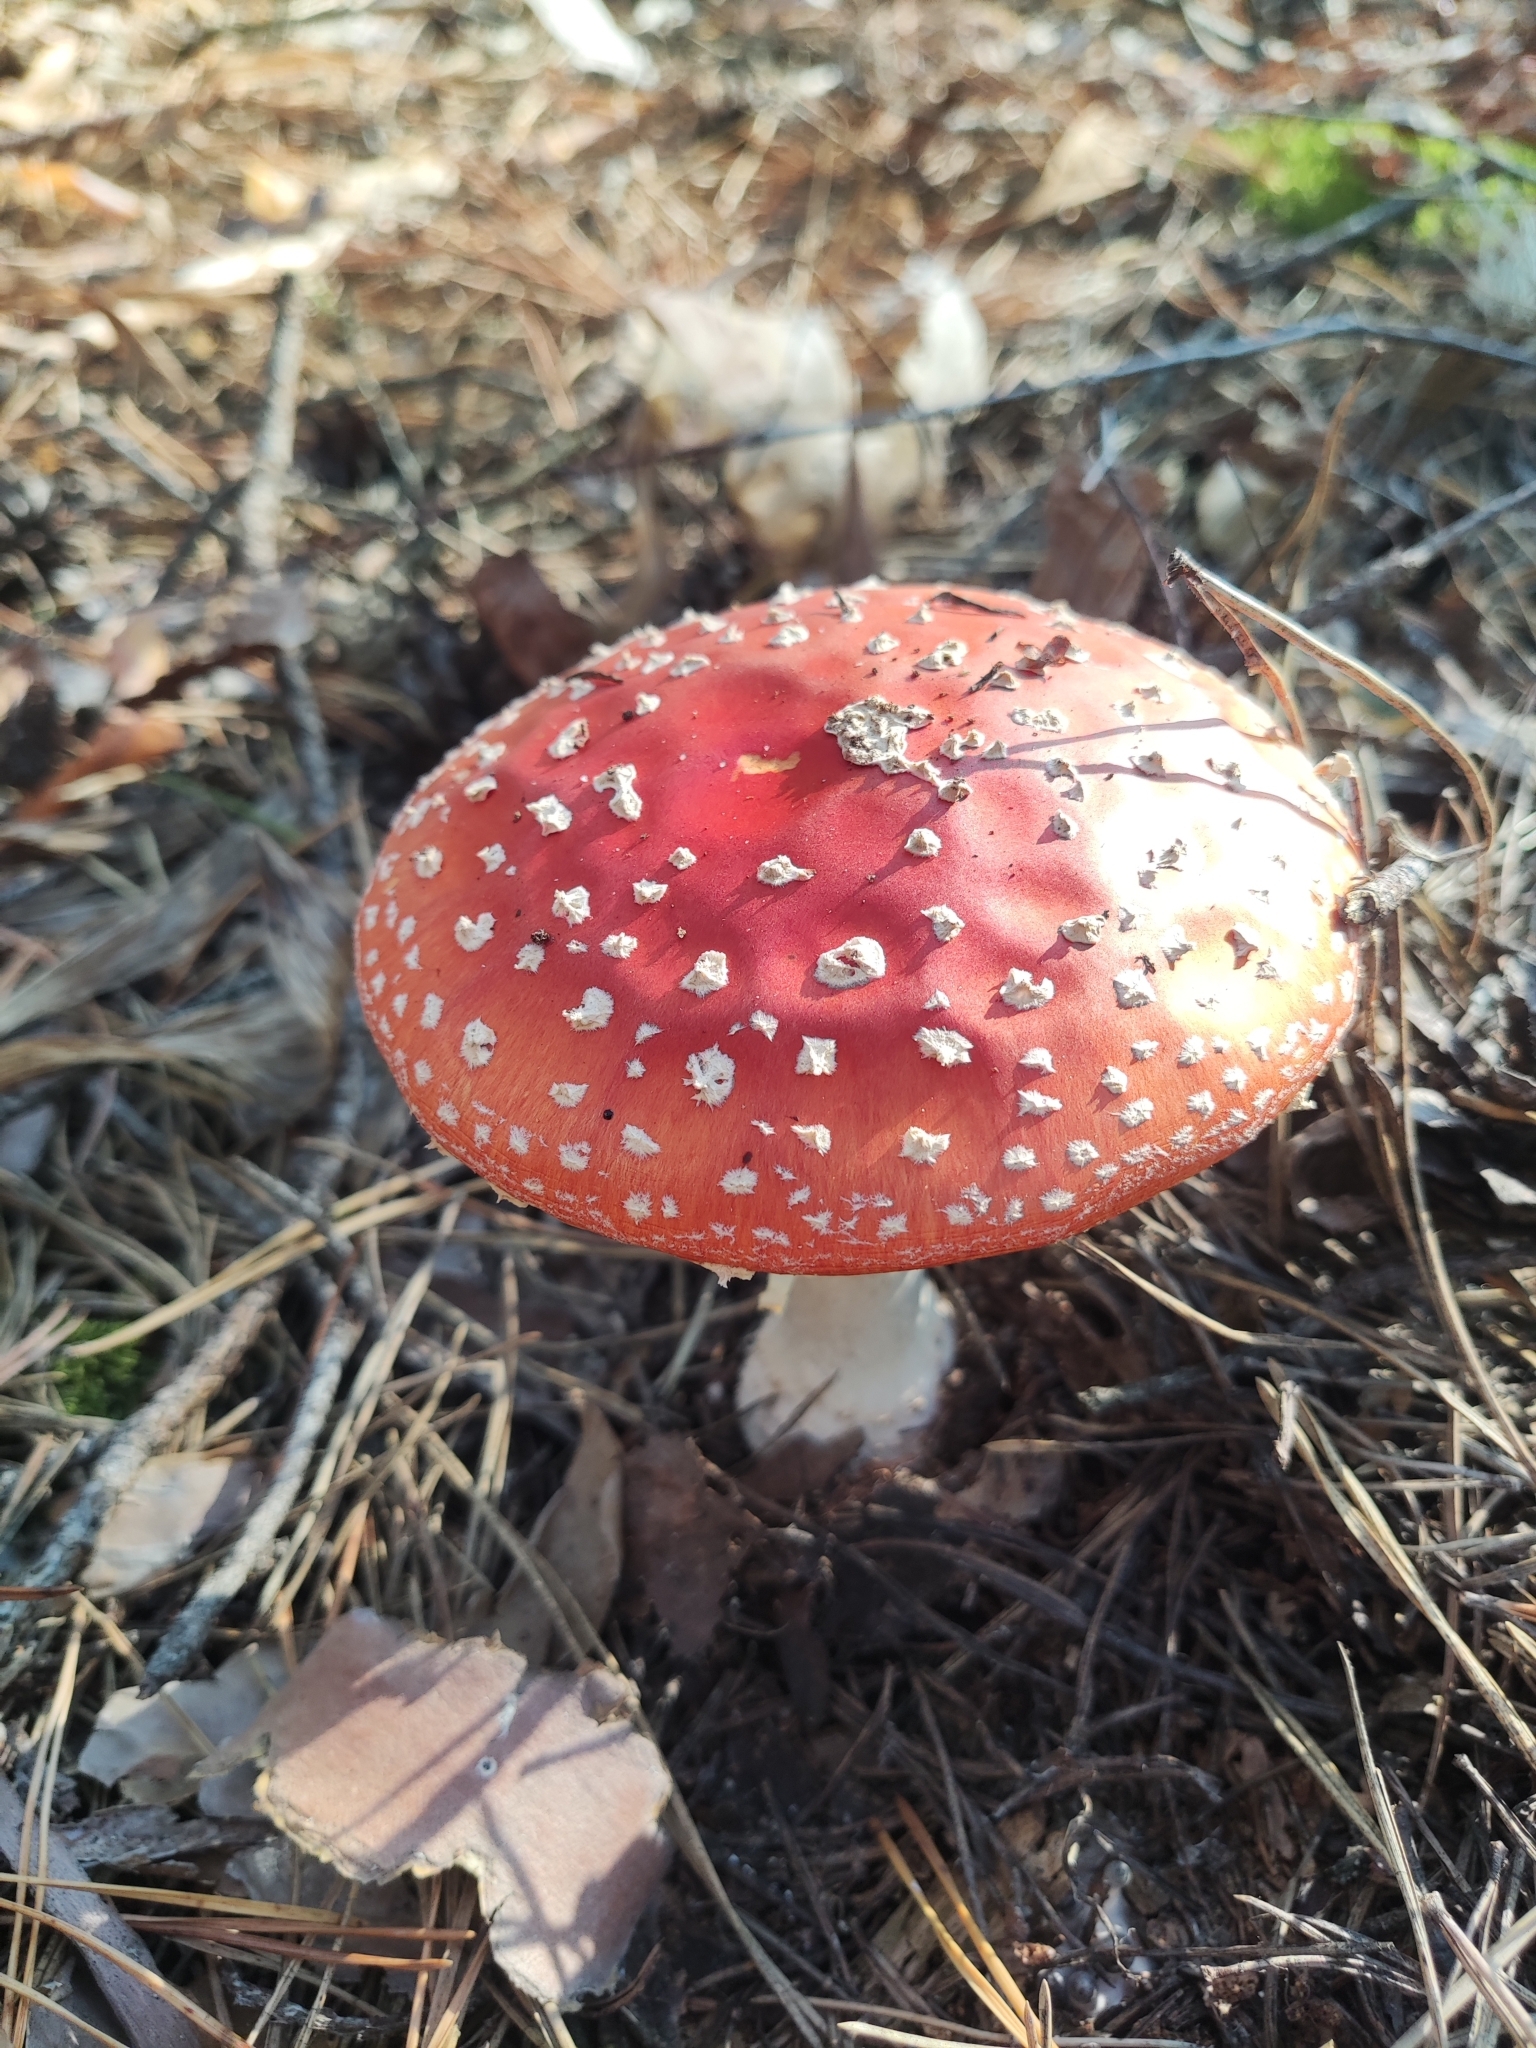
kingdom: Fungi
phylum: Basidiomycota
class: Agaricomycetes
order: Agaricales
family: Amanitaceae
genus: Amanita
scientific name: Amanita muscaria
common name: Fly agaric
